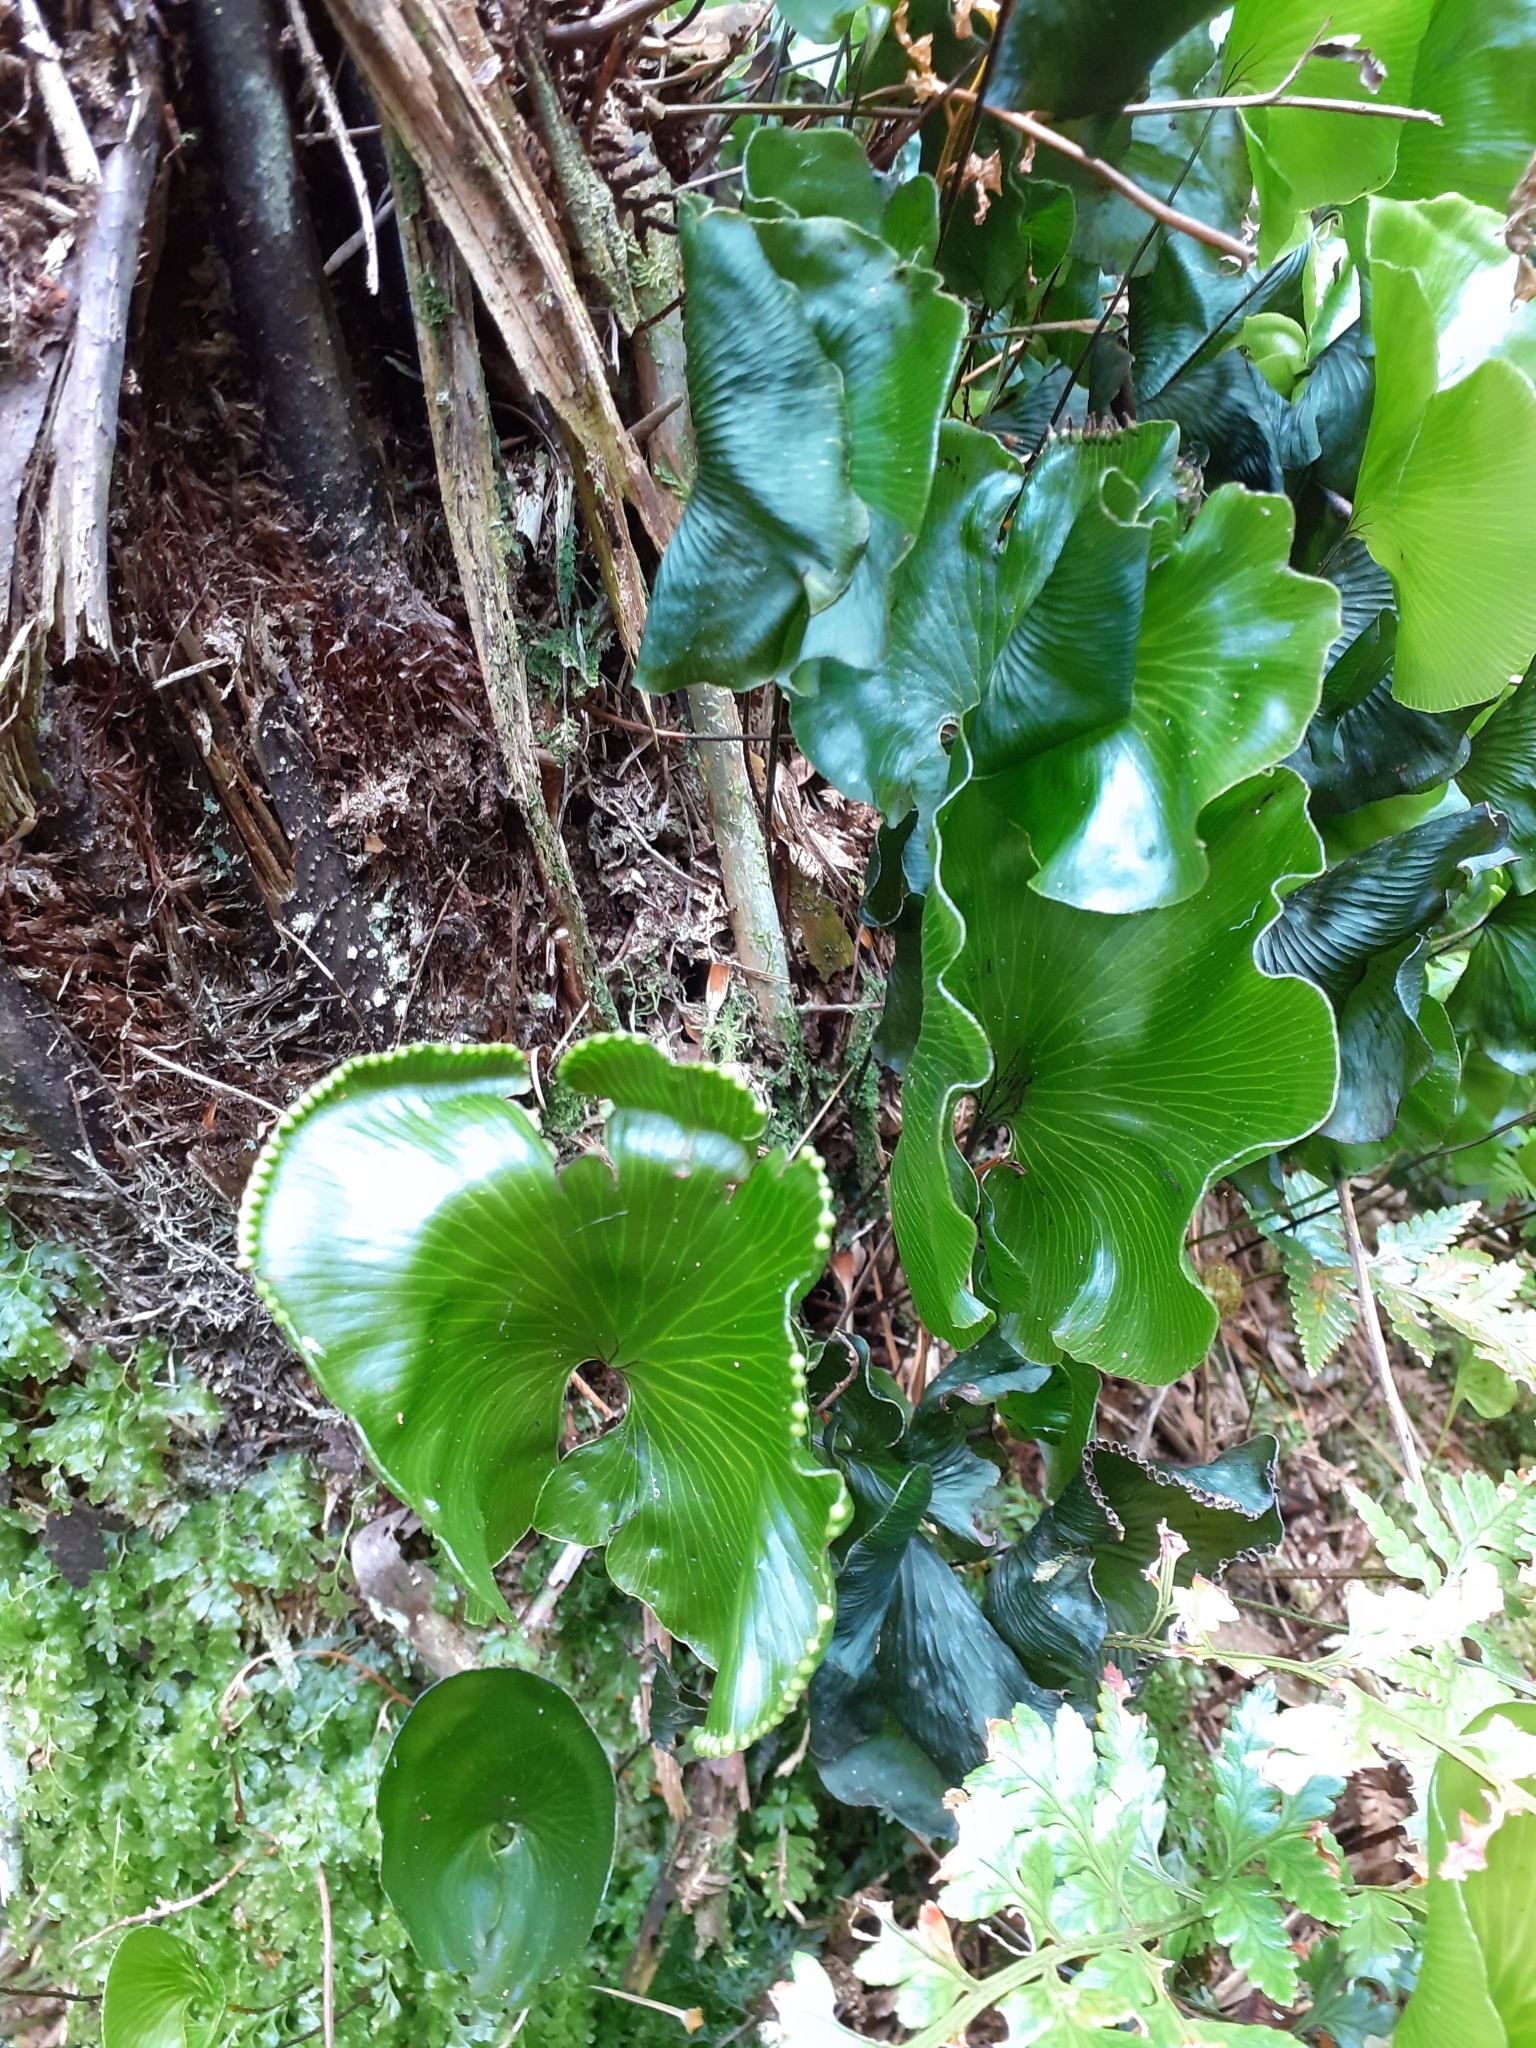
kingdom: Plantae
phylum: Tracheophyta
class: Polypodiopsida
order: Hymenophyllales
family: Hymenophyllaceae
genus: Hymenophyllum
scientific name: Hymenophyllum nephrophyllum
